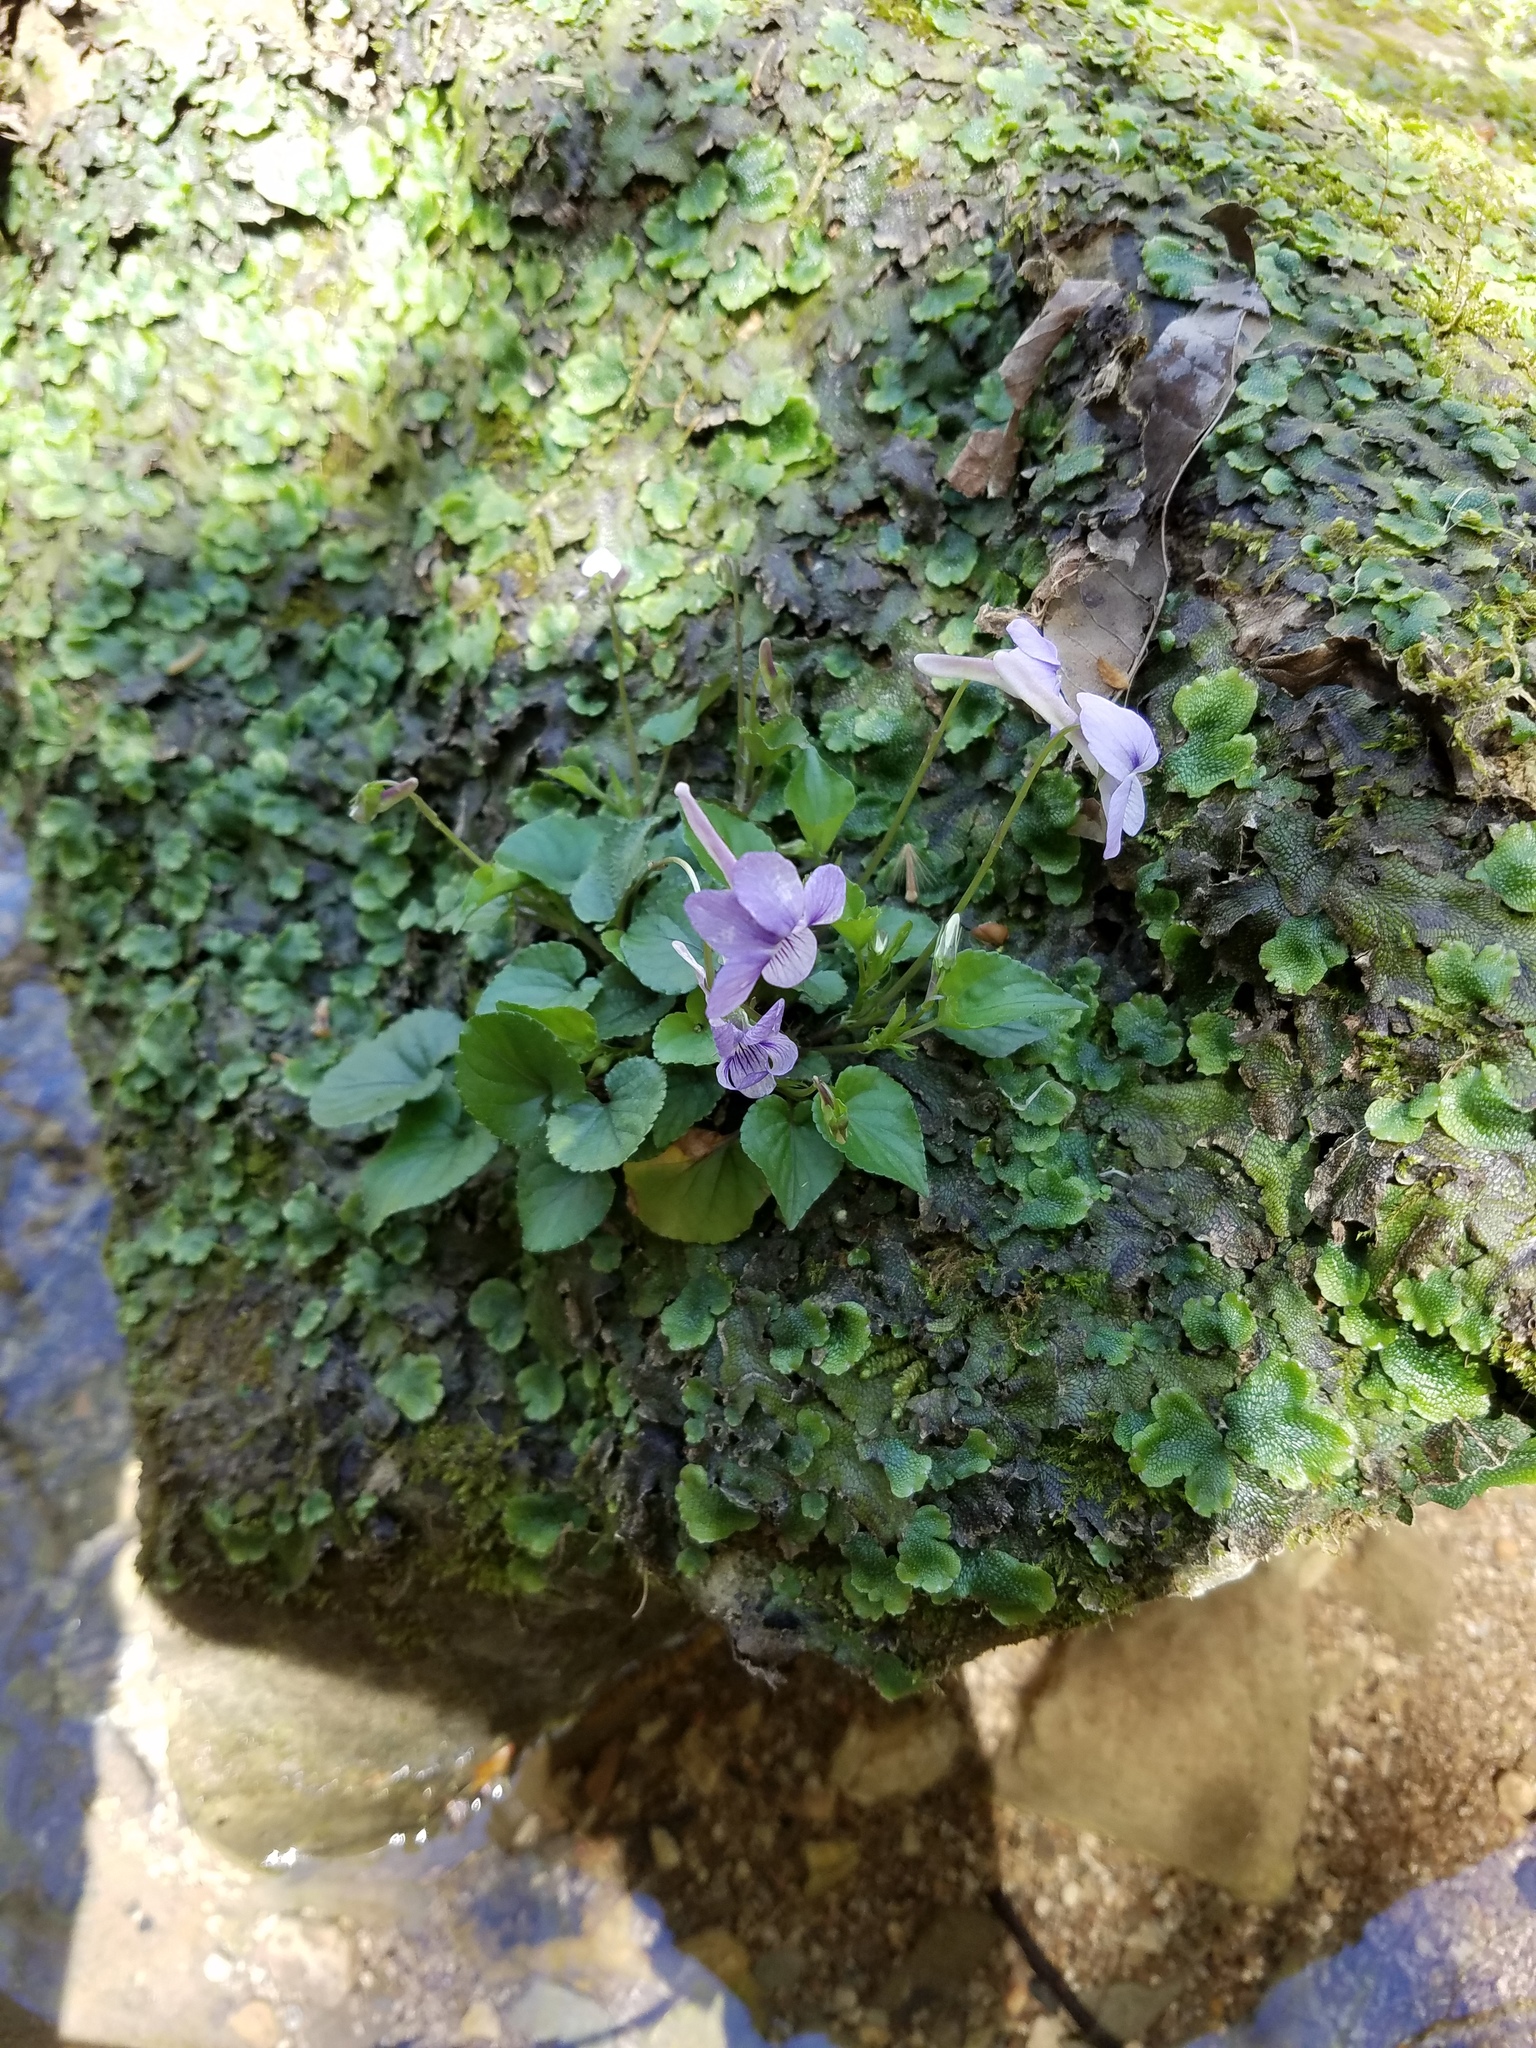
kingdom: Plantae
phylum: Tracheophyta
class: Magnoliopsida
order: Malpighiales
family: Violaceae
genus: Viola
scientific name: Viola rostrata
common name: Long-spur violet
